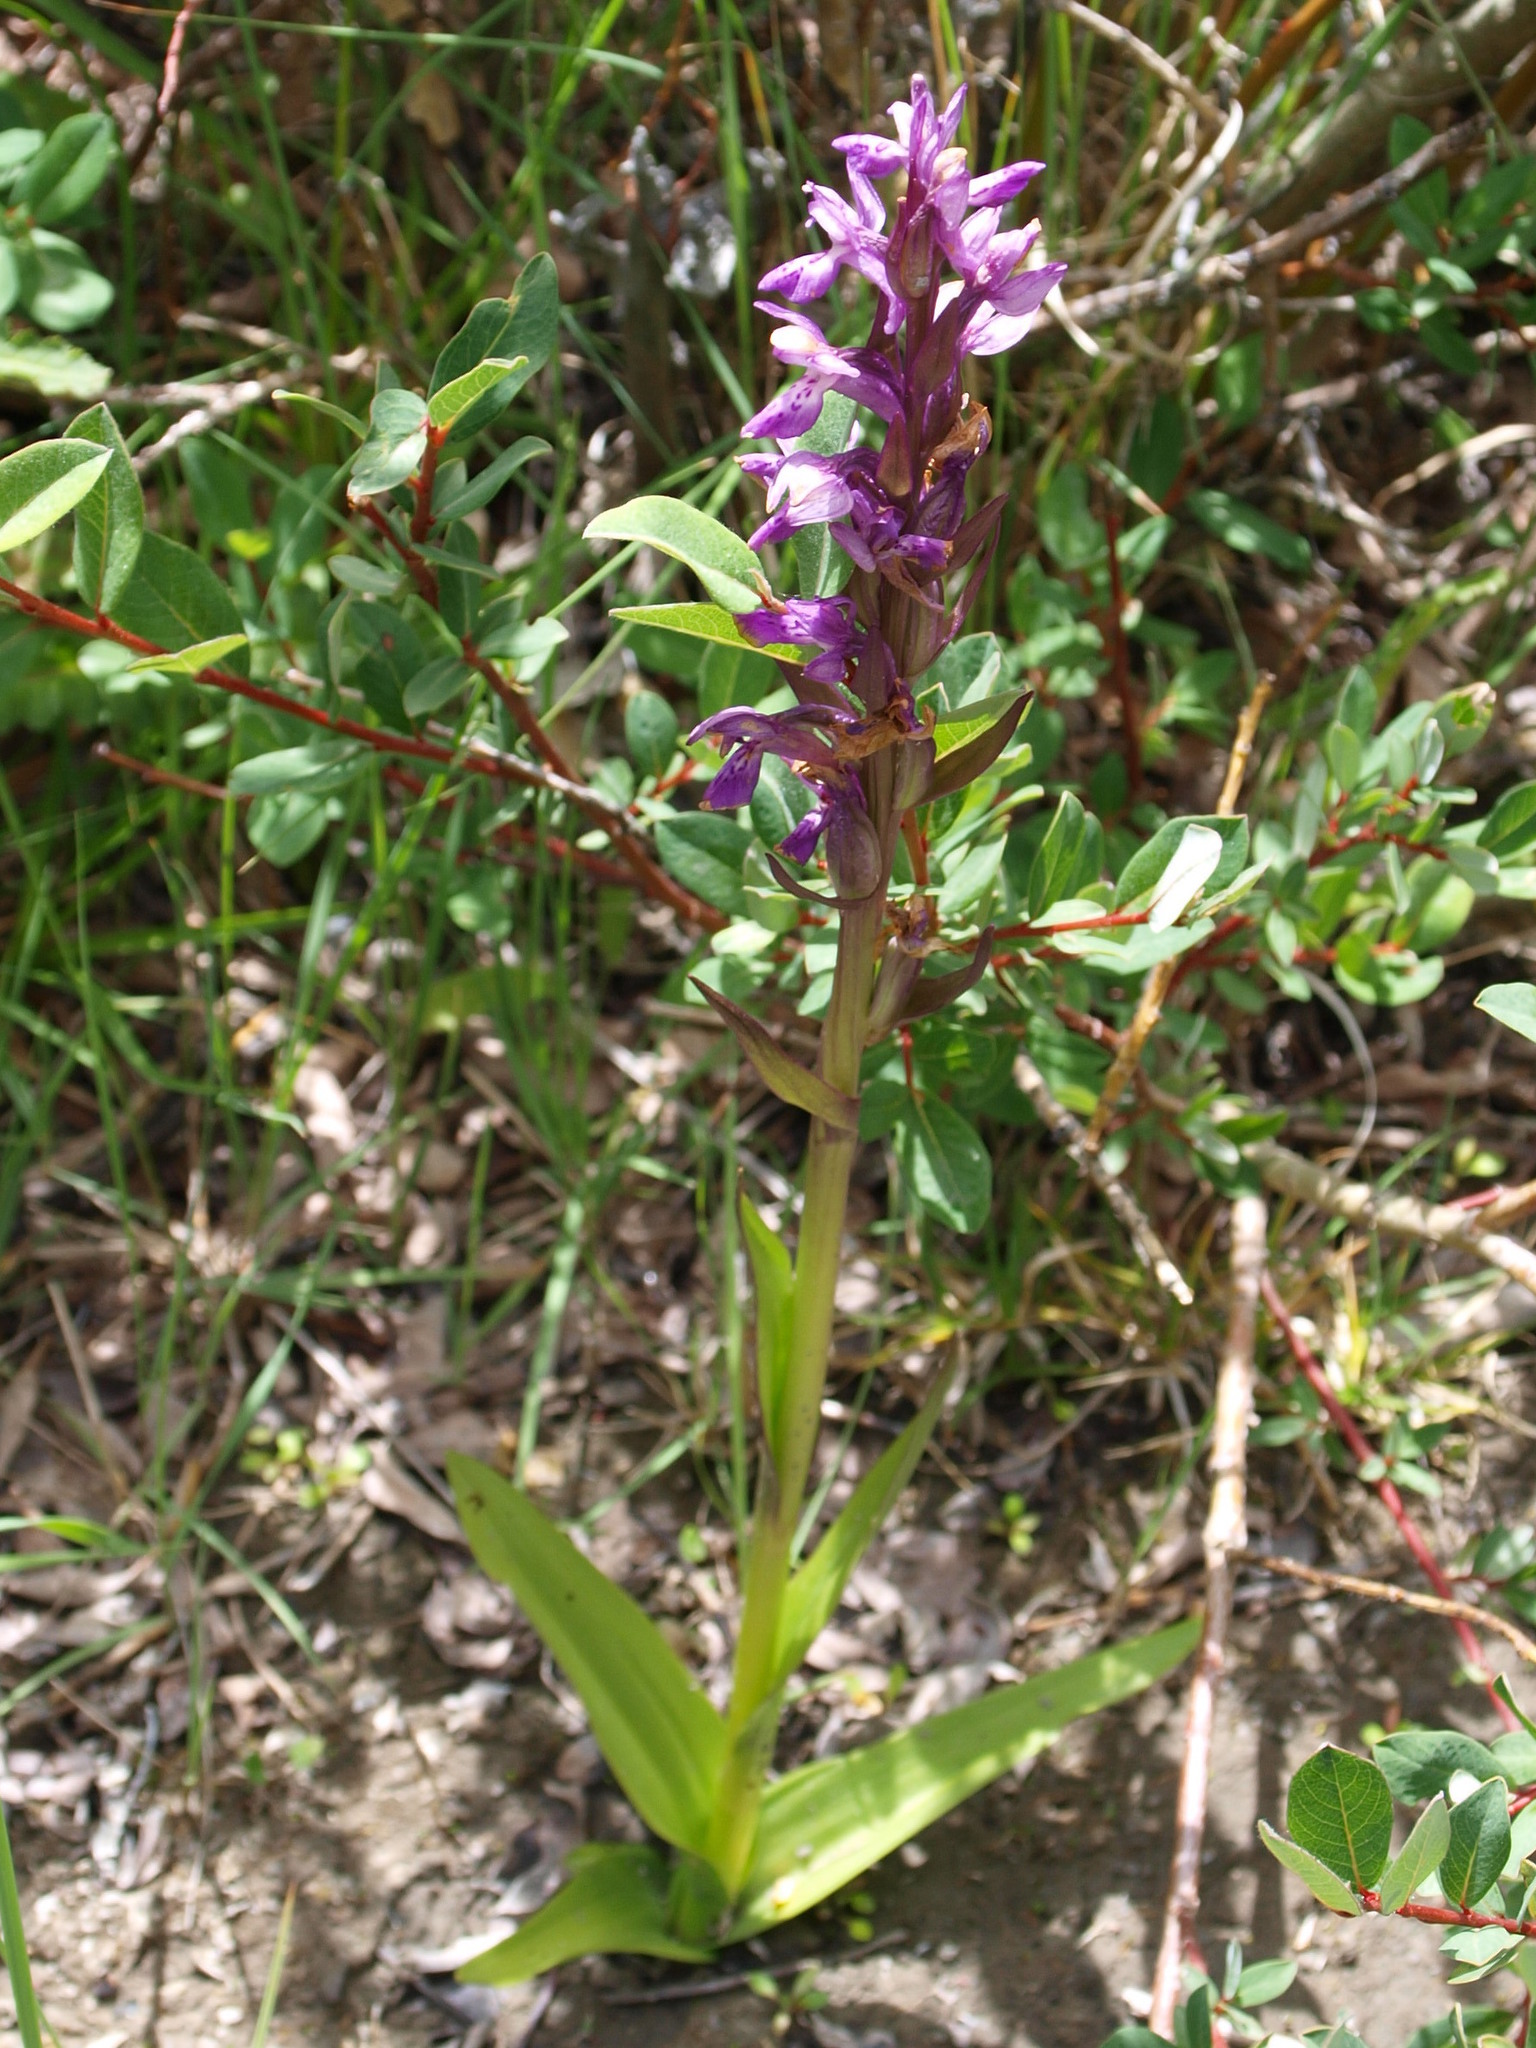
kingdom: Plantae
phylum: Tracheophyta
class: Liliopsida
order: Asparagales
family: Orchidaceae
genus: Dactylorhiza
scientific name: Dactylorhiza hatagirea
